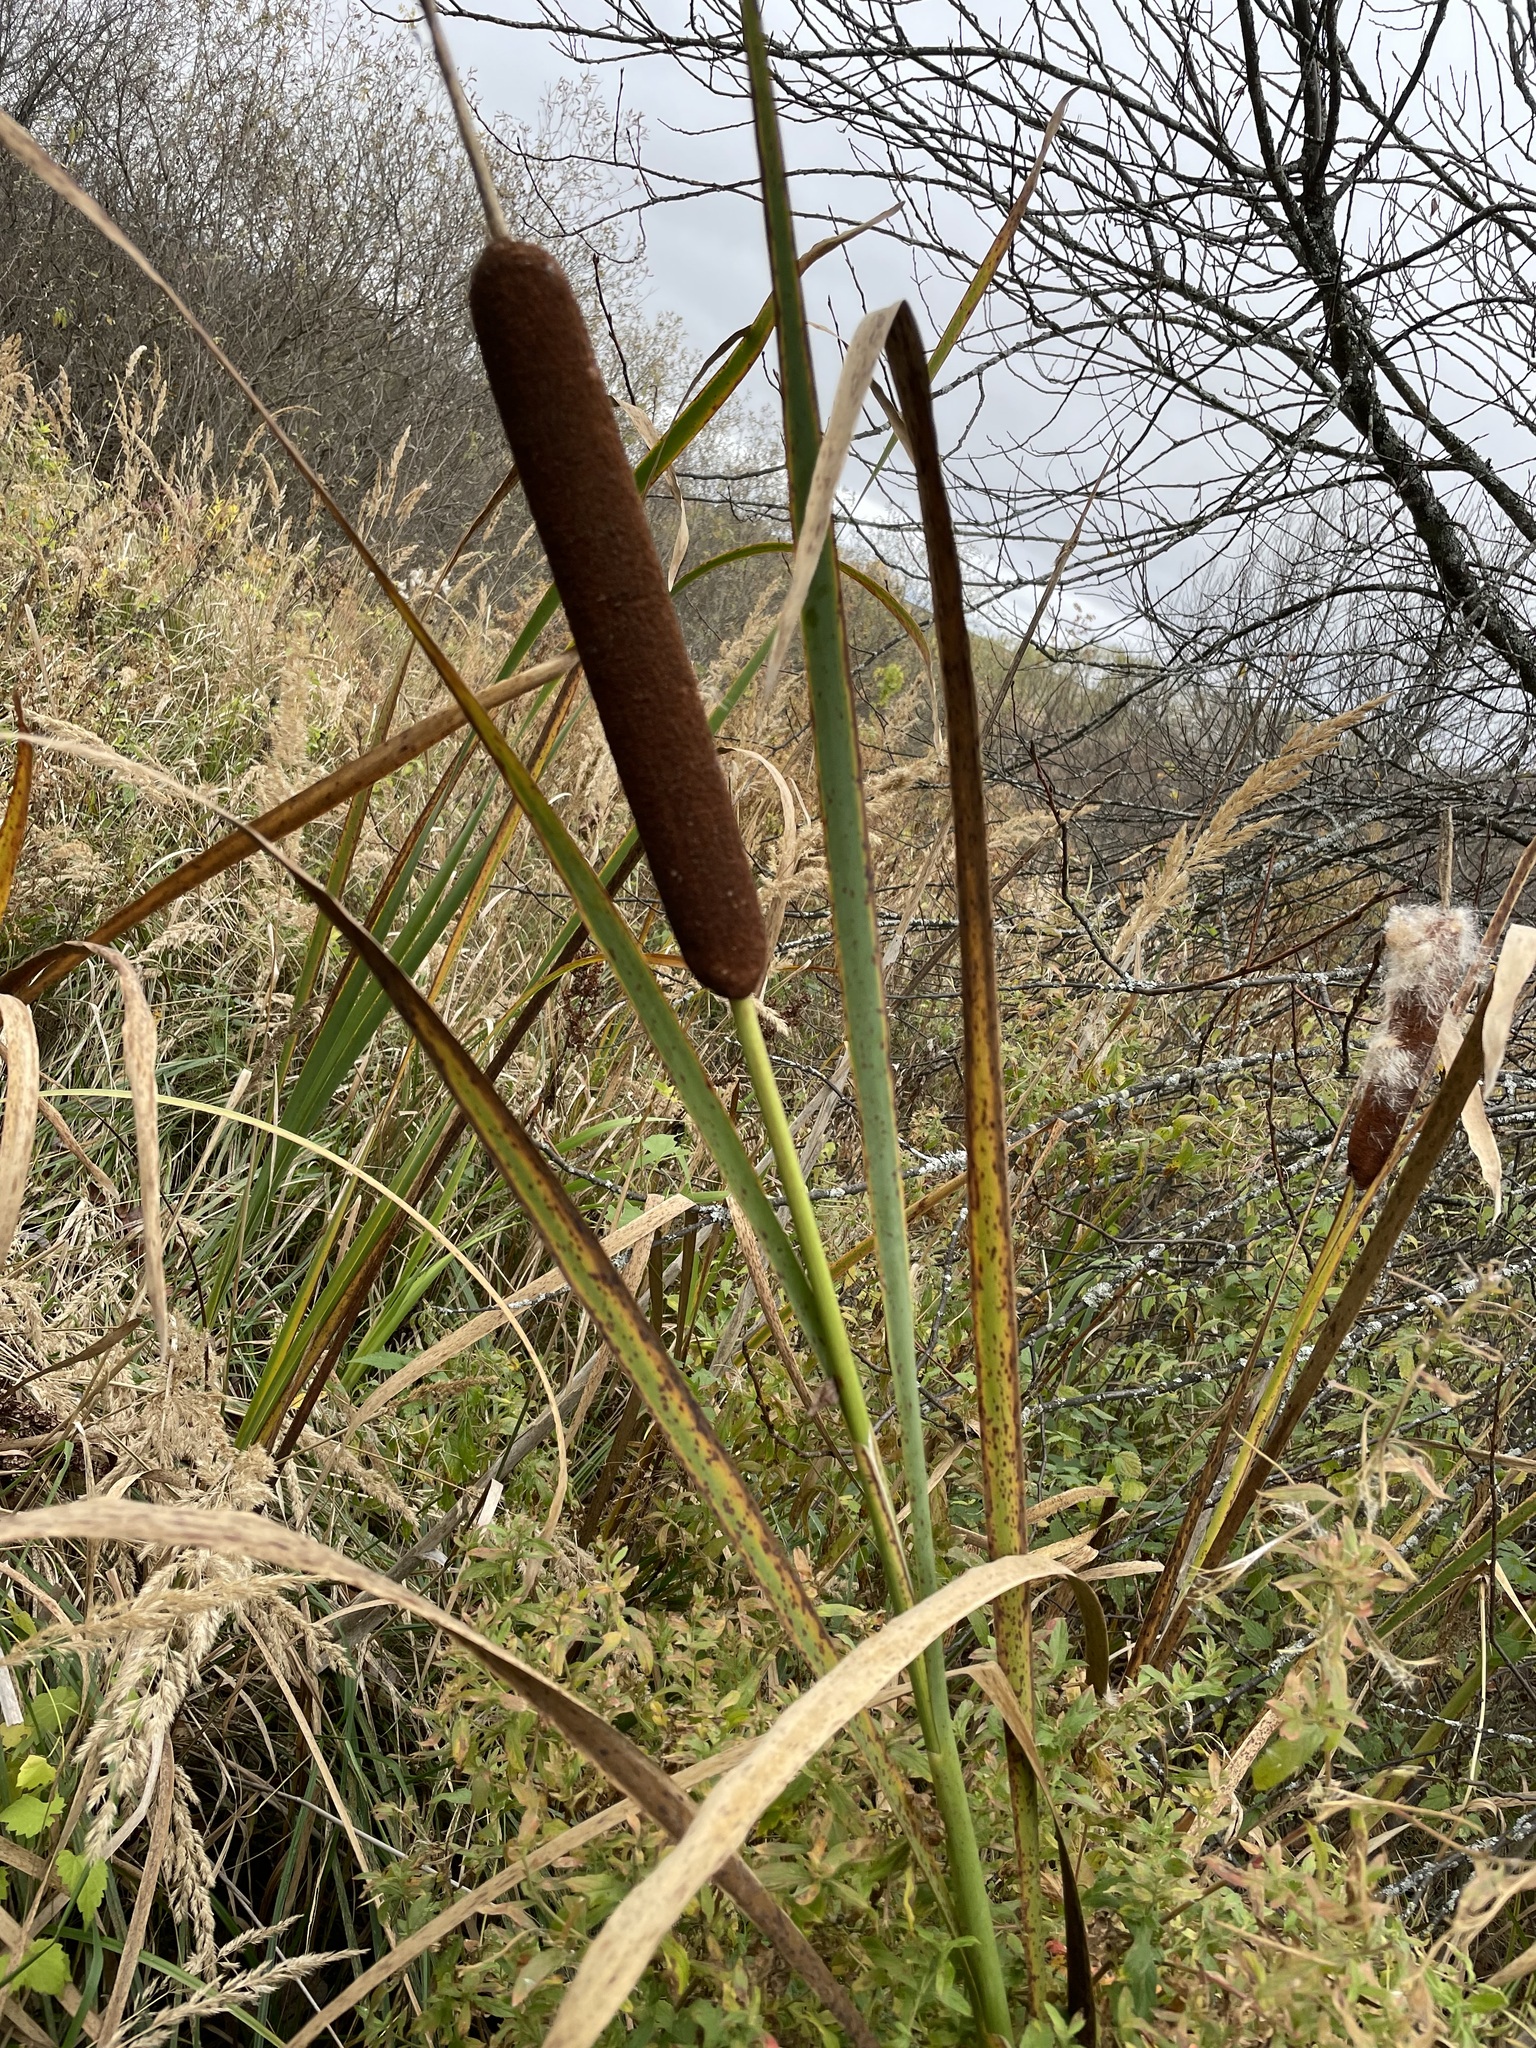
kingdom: Plantae
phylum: Tracheophyta
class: Liliopsida
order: Poales
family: Typhaceae
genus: Typha
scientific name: Typha latifolia
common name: Broadleaf cattail
